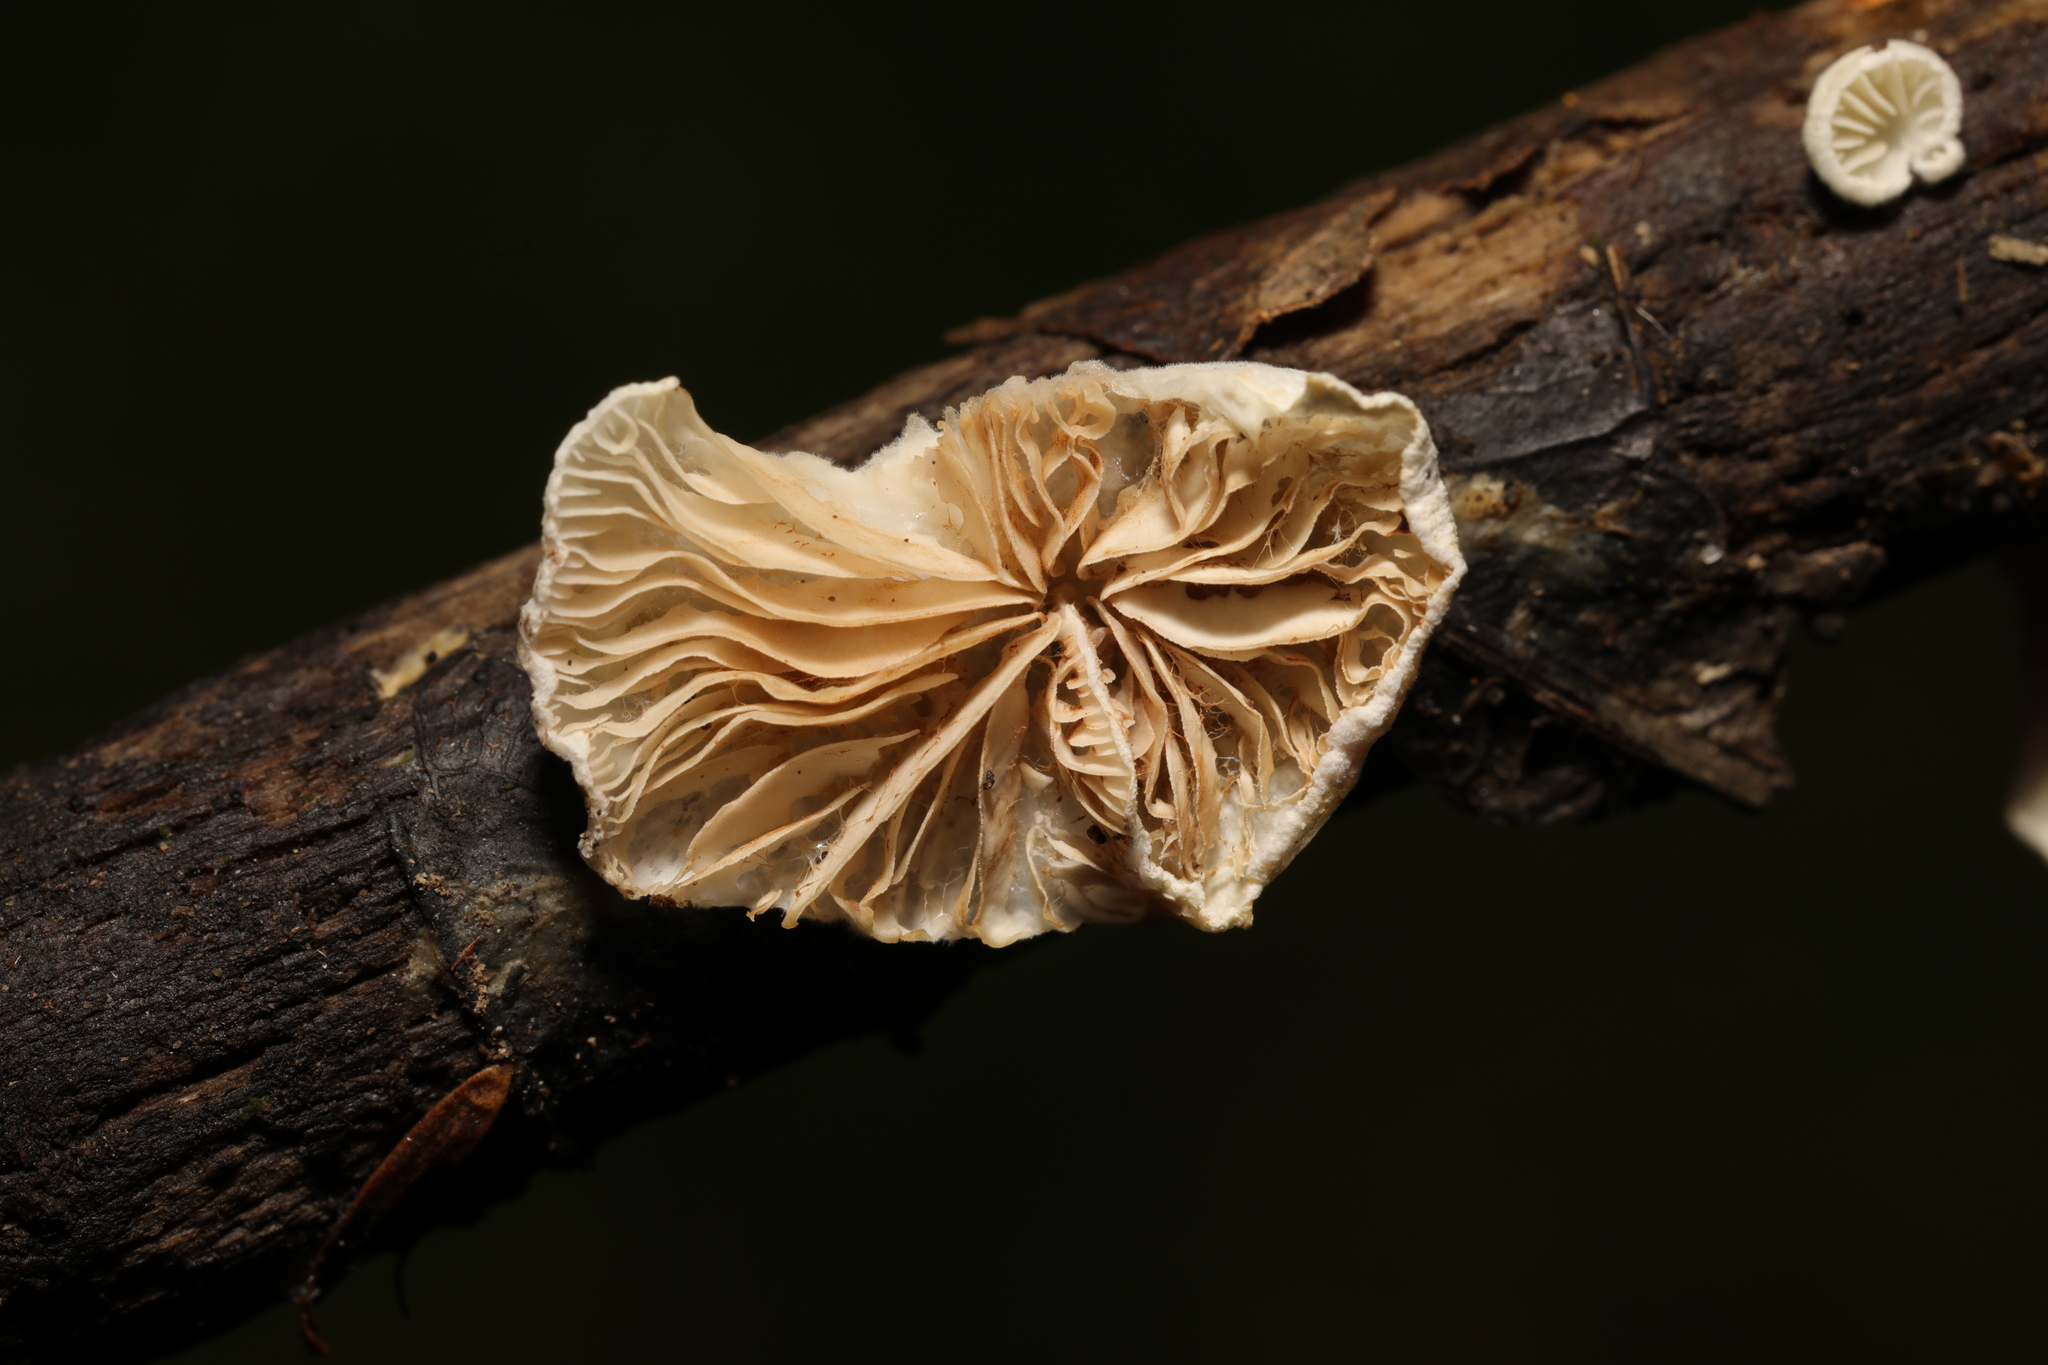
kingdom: Fungi
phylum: Basidiomycota
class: Agaricomycetes
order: Agaricales
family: Crepidotaceae
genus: Crepidotus
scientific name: Crepidotus variabilis
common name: Variable oysterling
